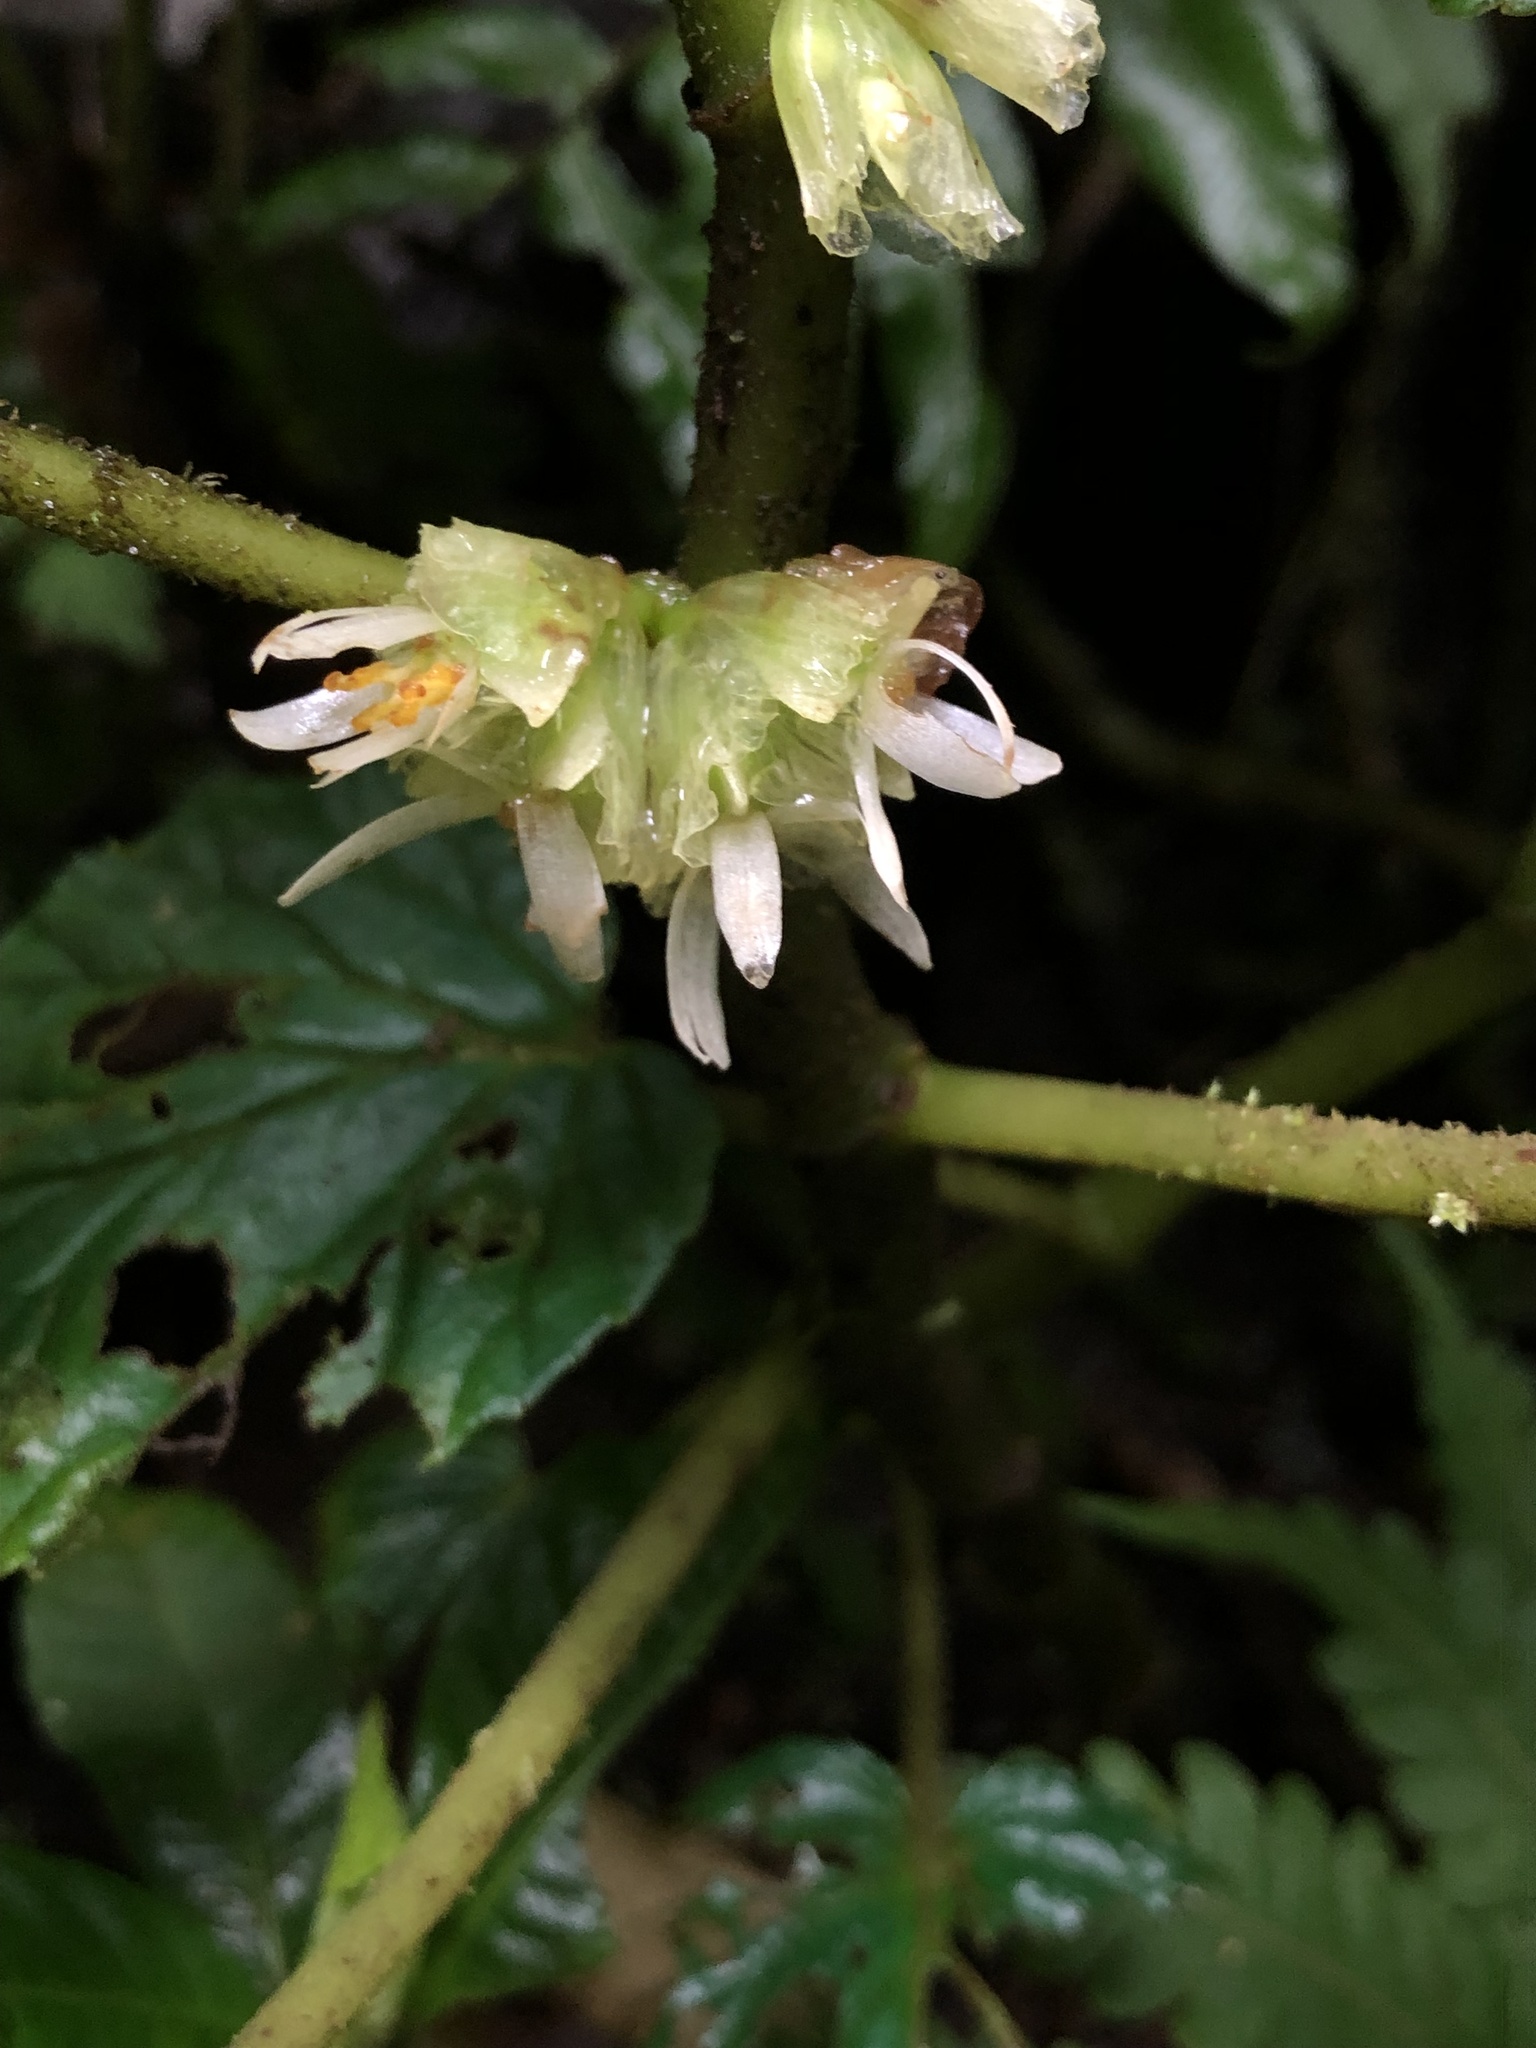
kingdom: Plantae
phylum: Tracheophyta
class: Magnoliopsida
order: Cucurbitales
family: Begoniaceae
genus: Begonia
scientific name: Begonia tiliifolia
